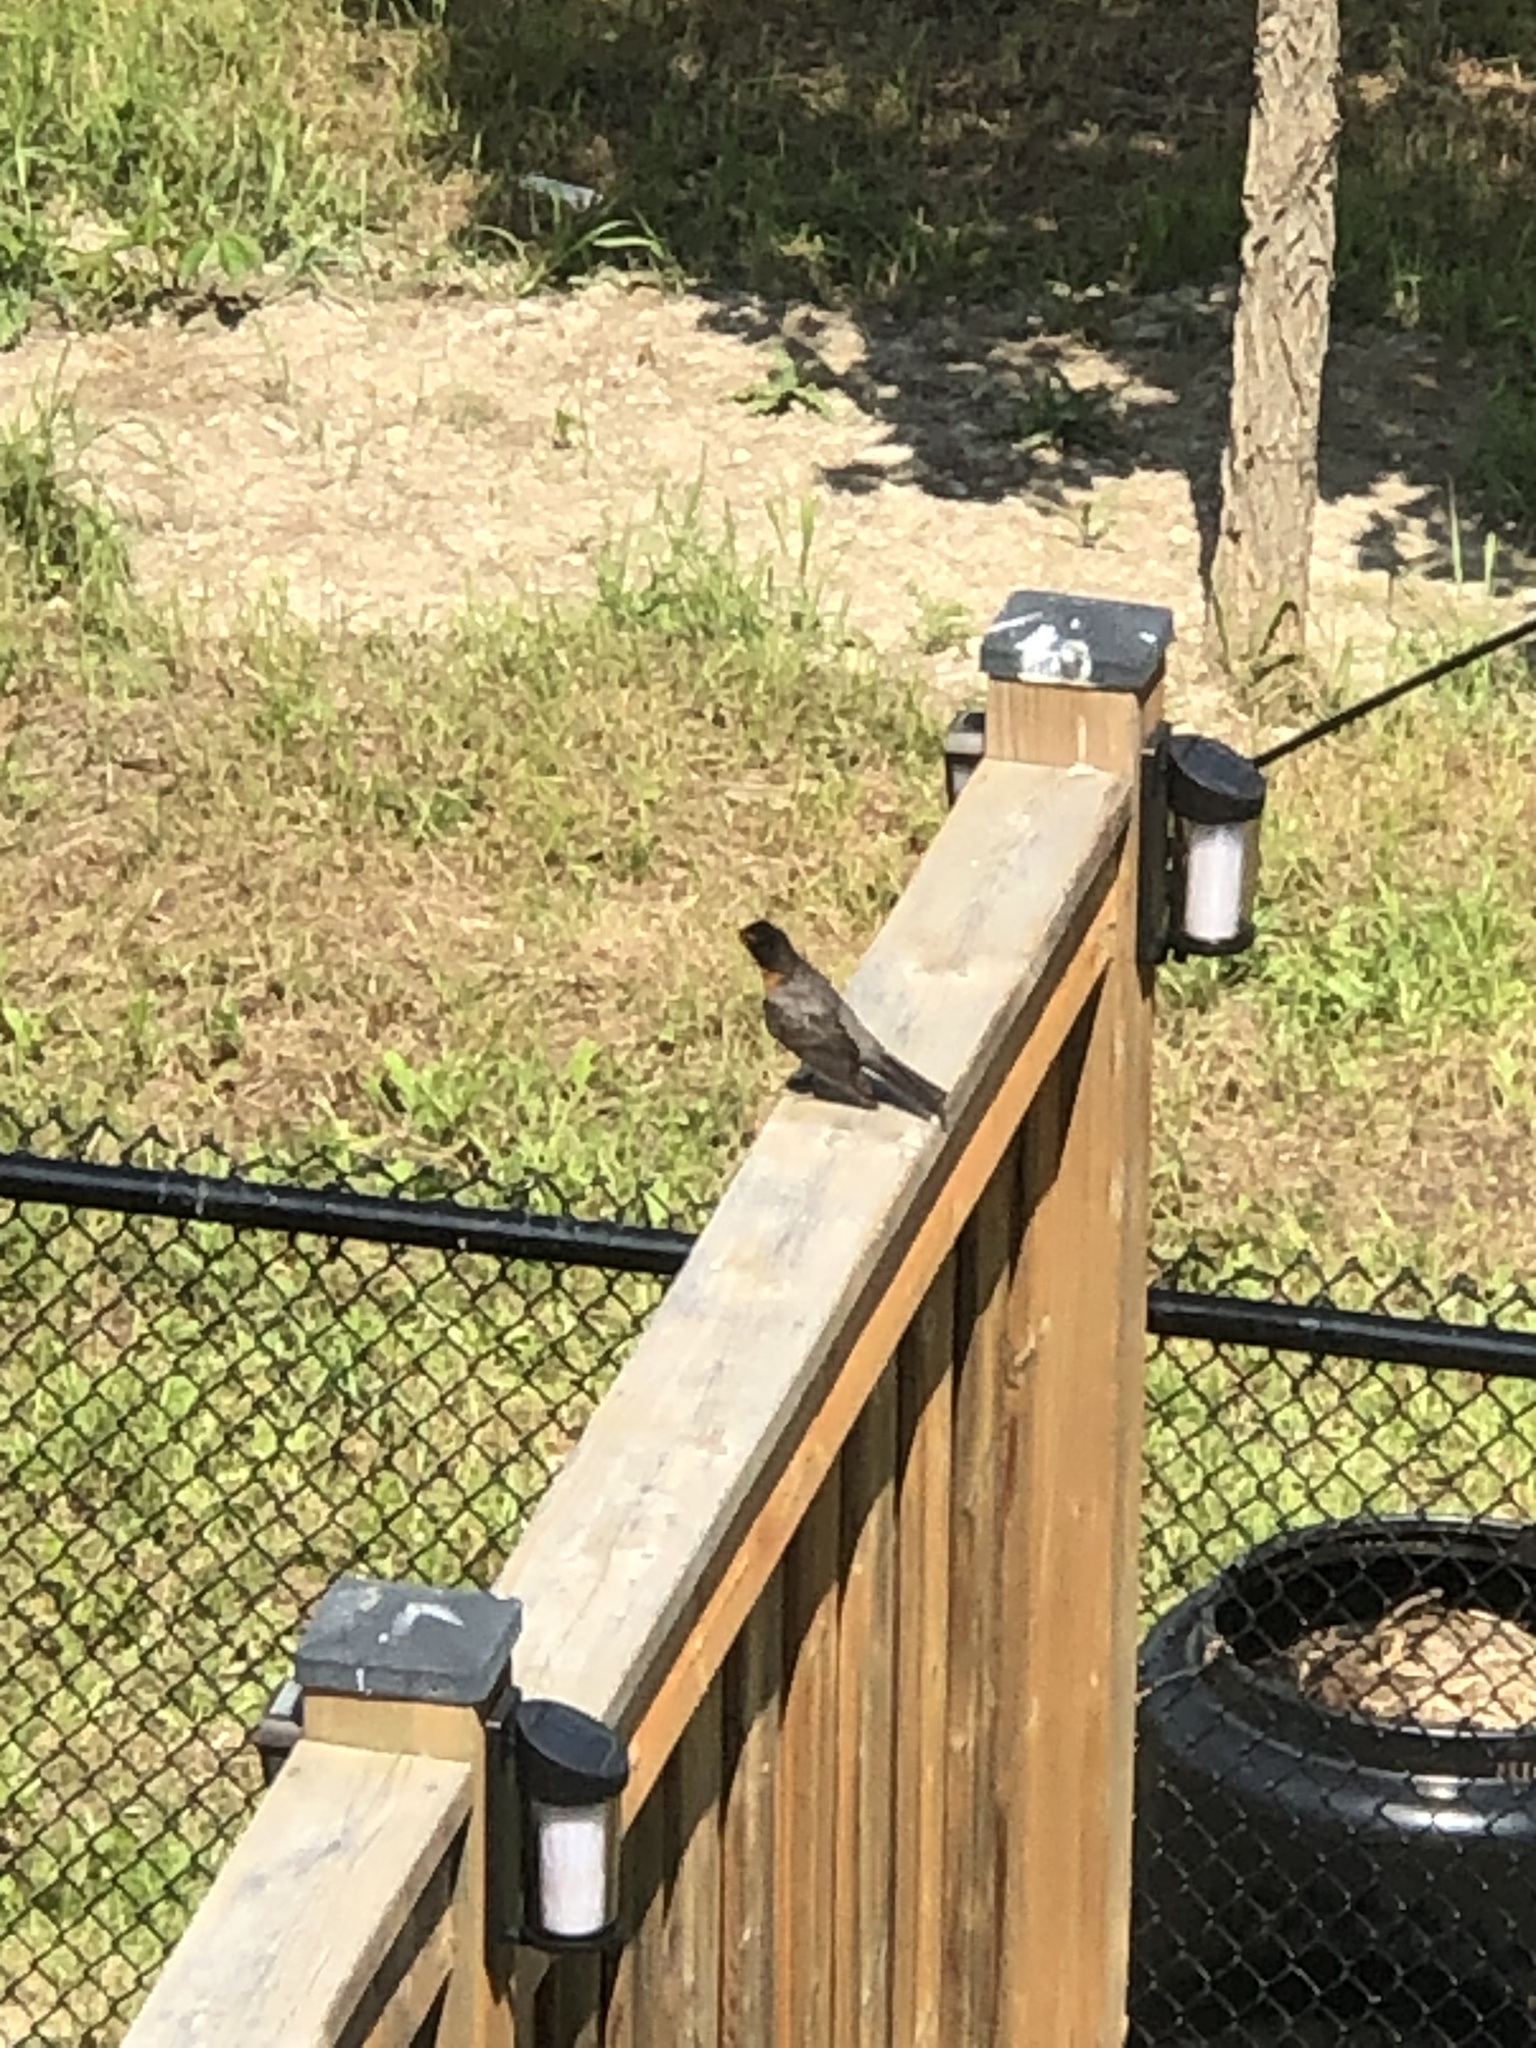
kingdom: Animalia
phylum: Chordata
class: Aves
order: Passeriformes
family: Turdidae
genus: Turdus
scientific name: Turdus migratorius
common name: American robin
